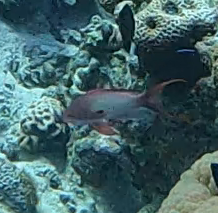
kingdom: Animalia
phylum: Chordata
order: Perciformes
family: Serranidae
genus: Pseudanthias
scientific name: Pseudanthias squamipinnis
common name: Scalefin anthias
